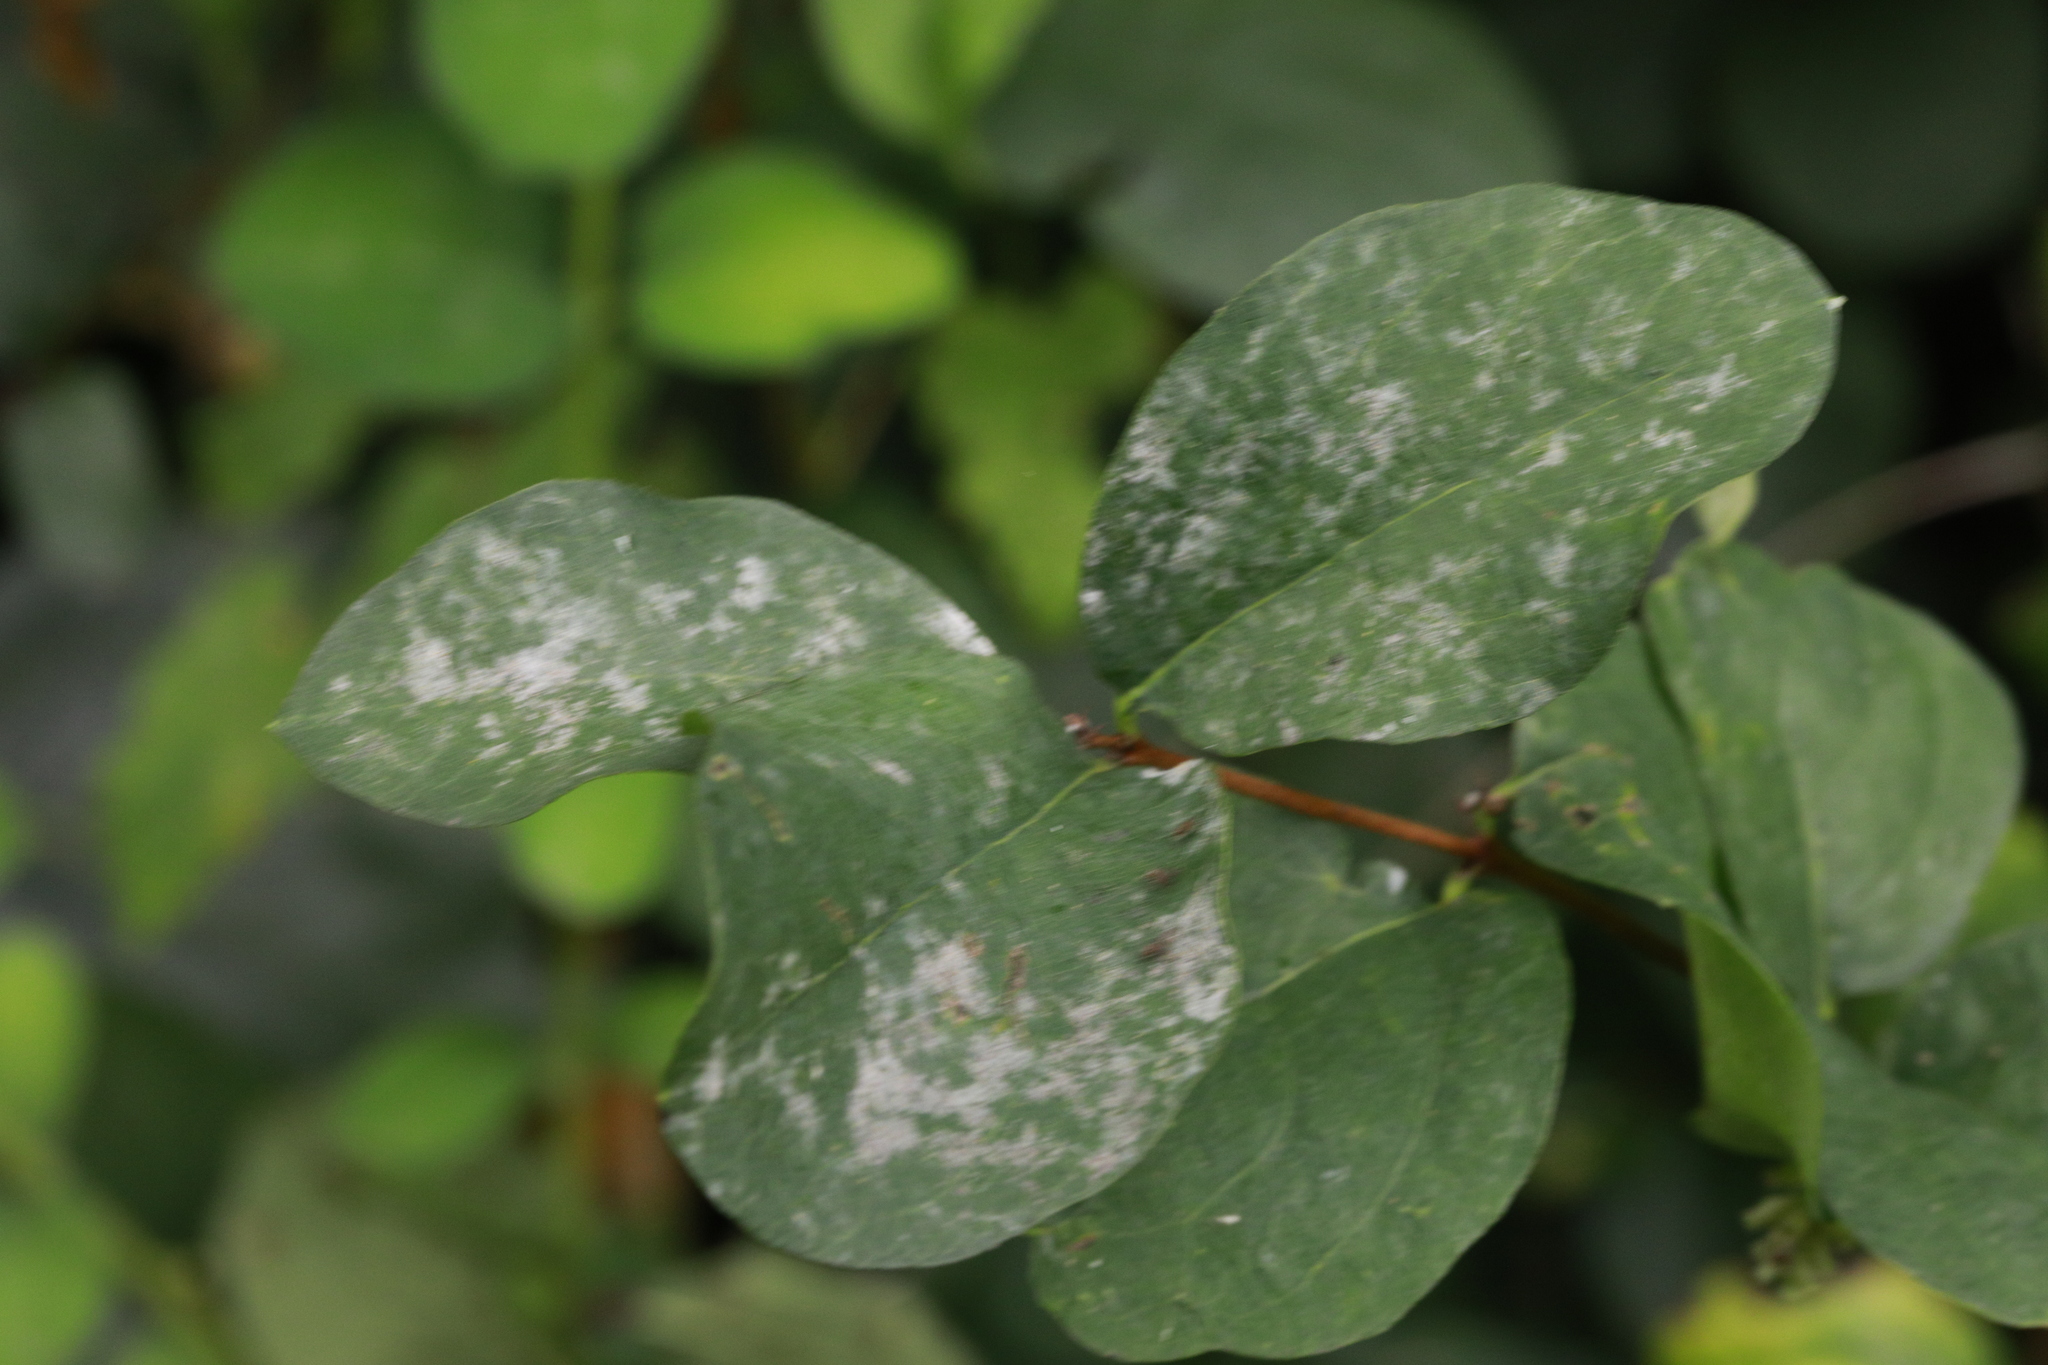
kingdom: Fungi
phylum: Ascomycota
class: Leotiomycetes
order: Helotiales
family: Erysiphaceae
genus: Erysiphe
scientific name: Erysiphe symphoricarpi
